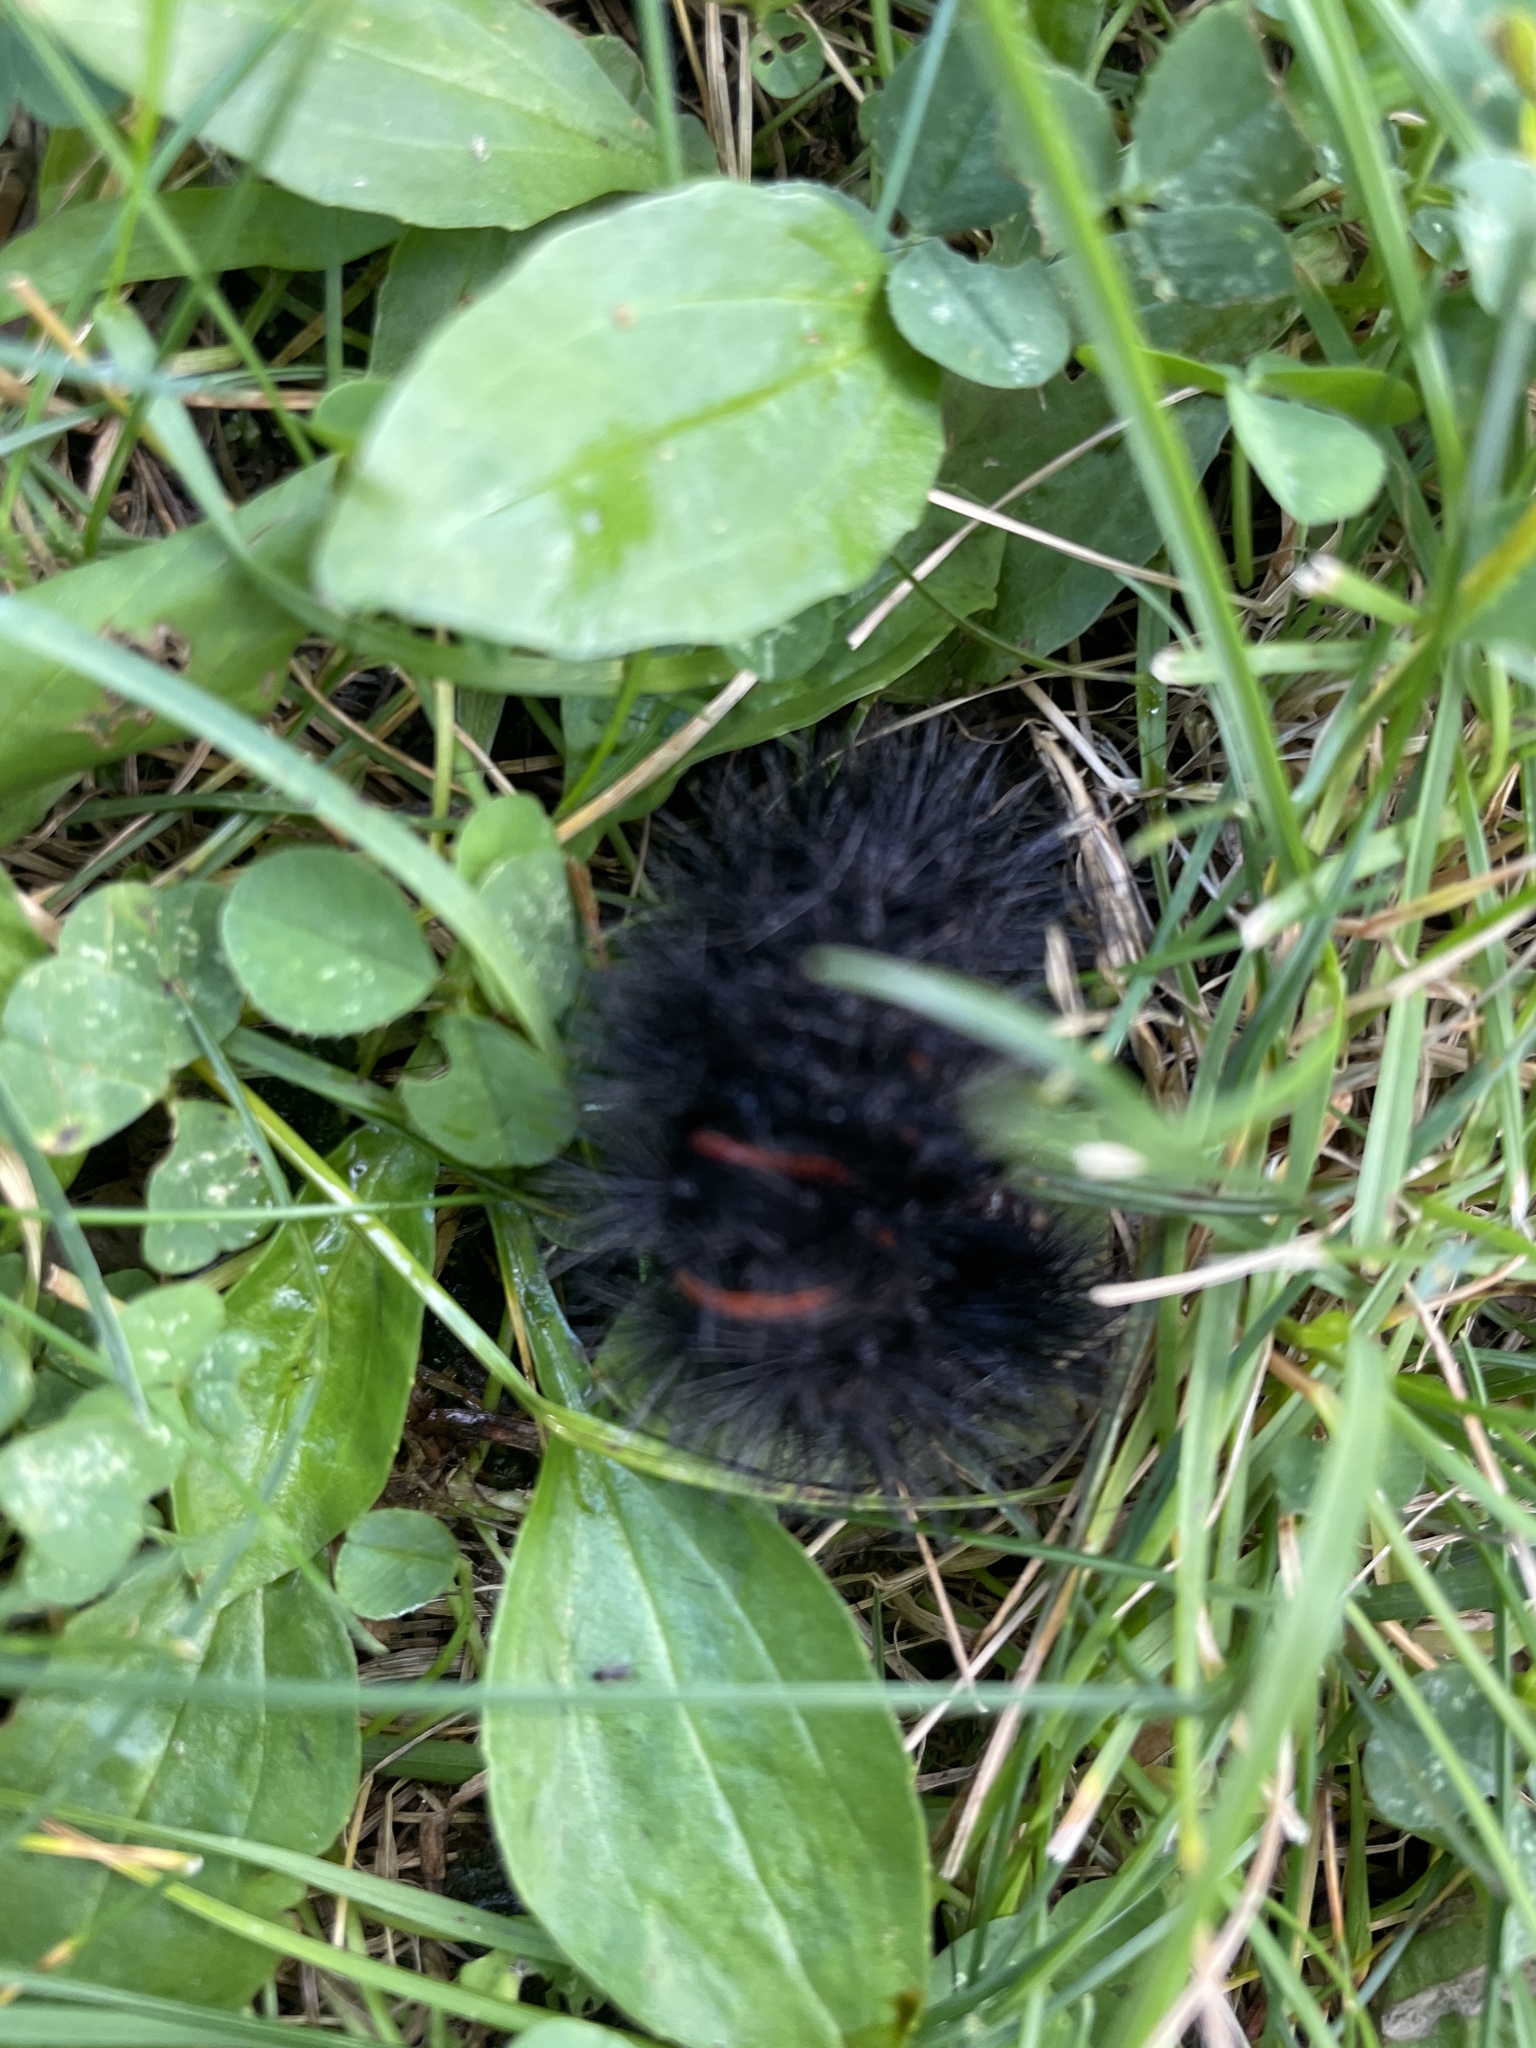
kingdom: Animalia
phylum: Arthropoda
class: Insecta
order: Lepidoptera
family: Erebidae
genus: Hypercompe
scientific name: Hypercompe scribonia
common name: Giant leopard moth
